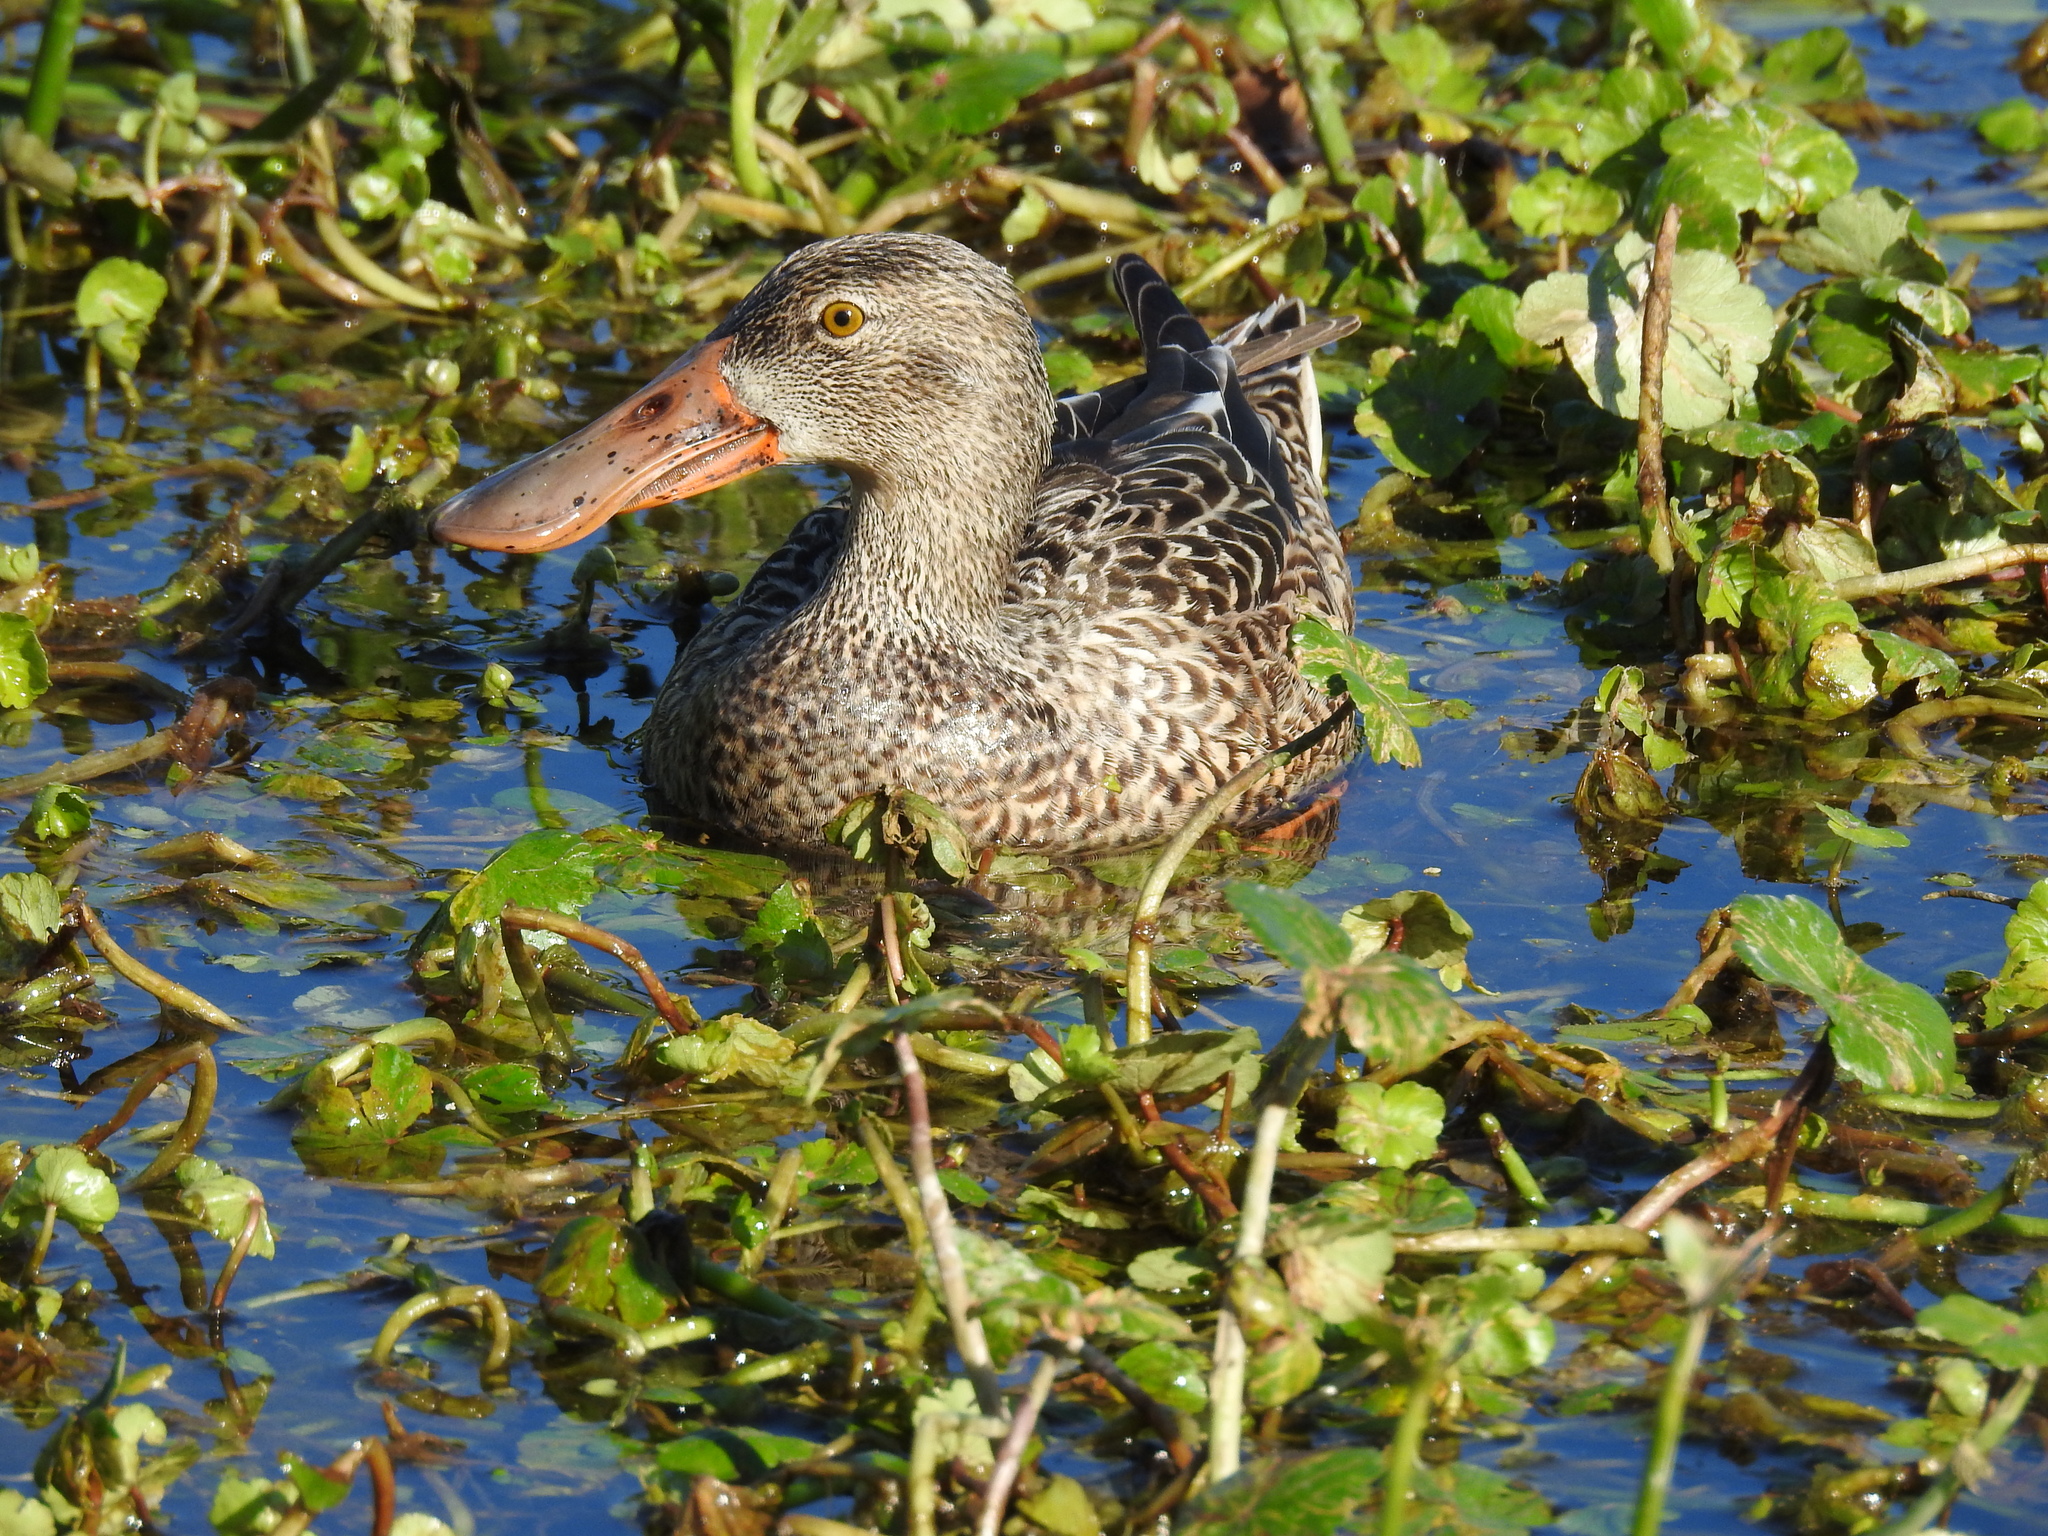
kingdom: Animalia
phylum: Chordata
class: Aves
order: Anseriformes
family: Anatidae
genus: Spatula
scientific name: Spatula clypeata
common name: Northern shoveler
